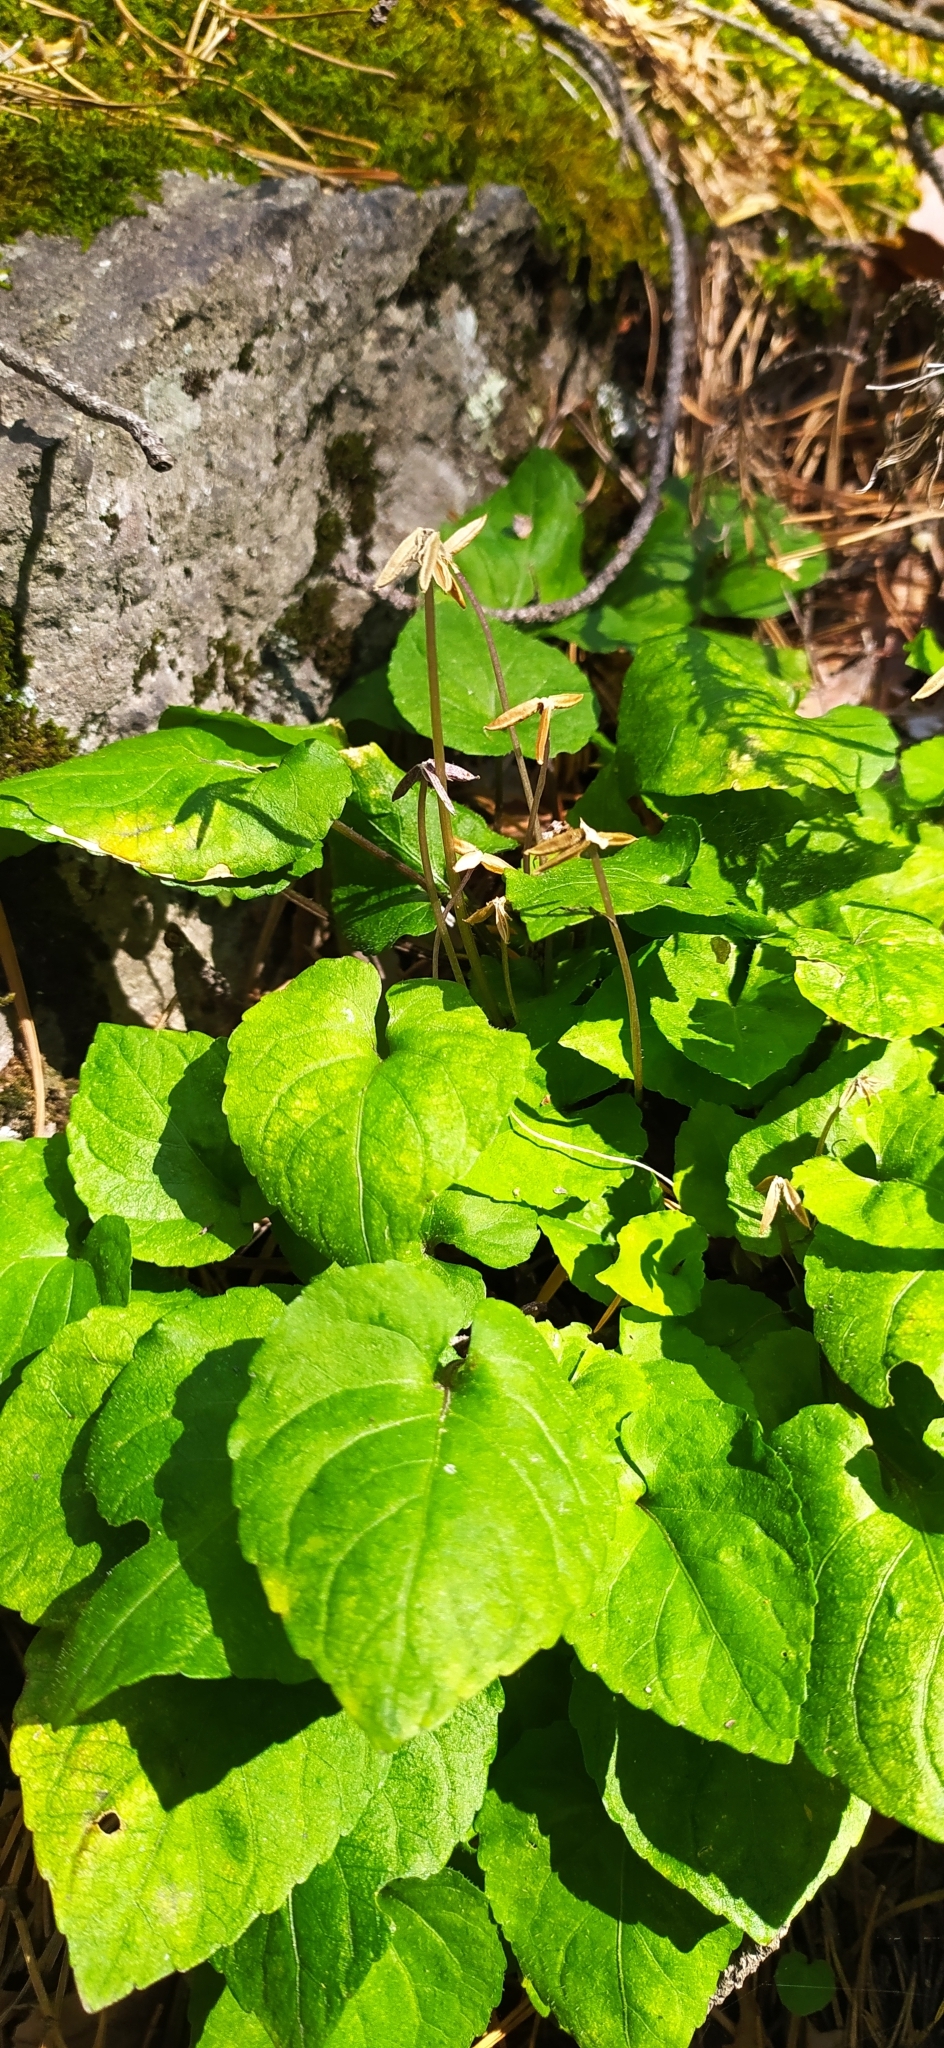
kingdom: Plantae
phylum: Tracheophyta
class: Magnoliopsida
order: Malpighiales
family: Violaceae
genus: Viola
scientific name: Viola selkirkii
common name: Selkirk's violet
